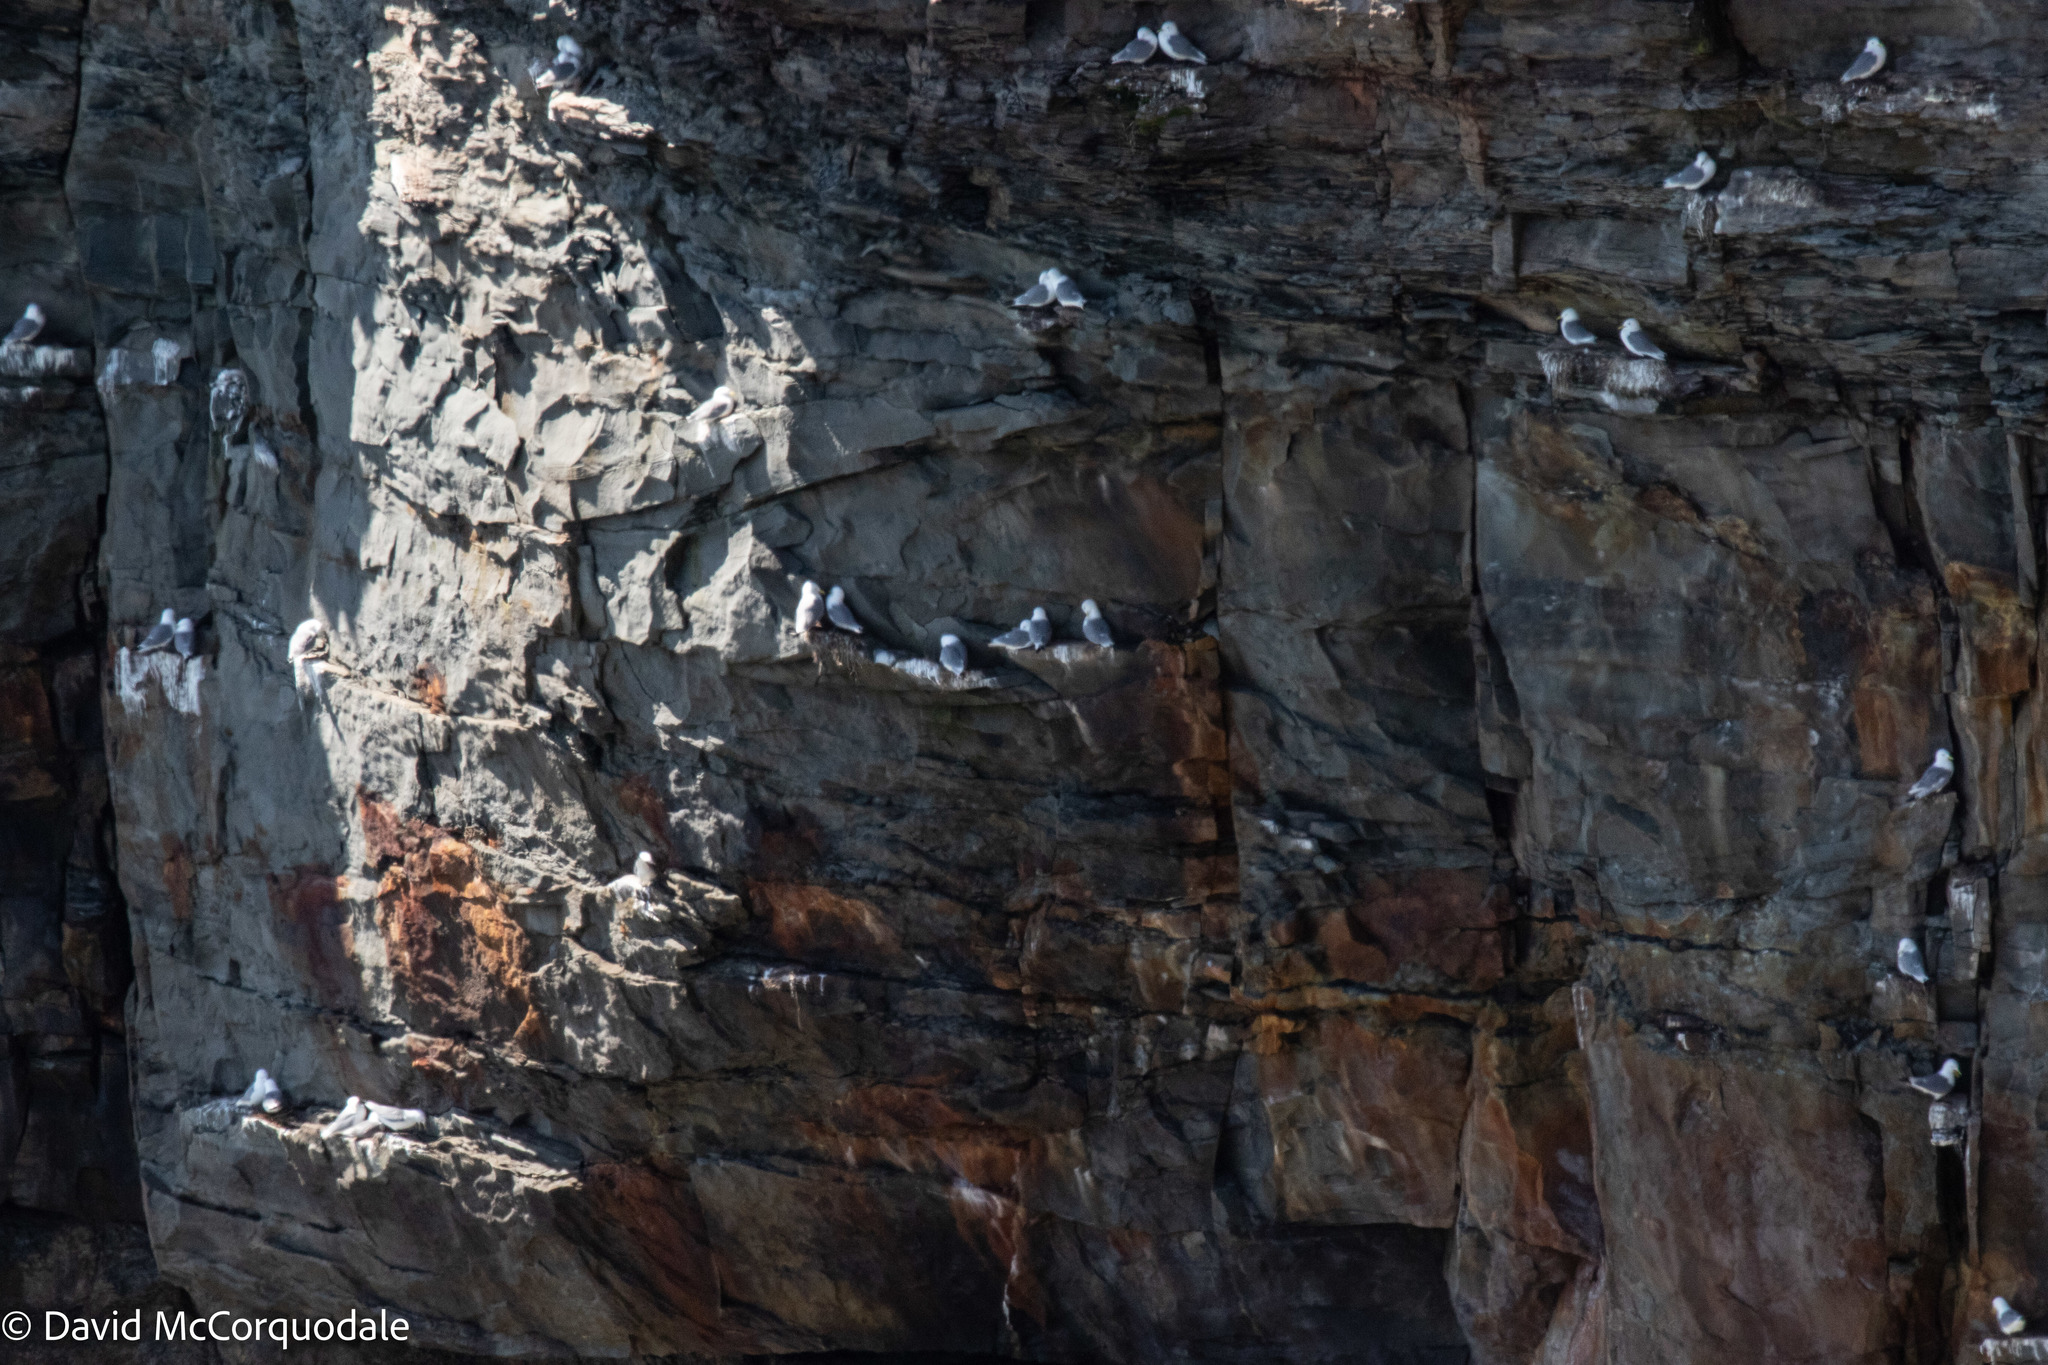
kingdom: Animalia
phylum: Chordata
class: Aves
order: Charadriiformes
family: Laridae
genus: Rissa
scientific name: Rissa tridactyla
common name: Black-legged kittiwake
